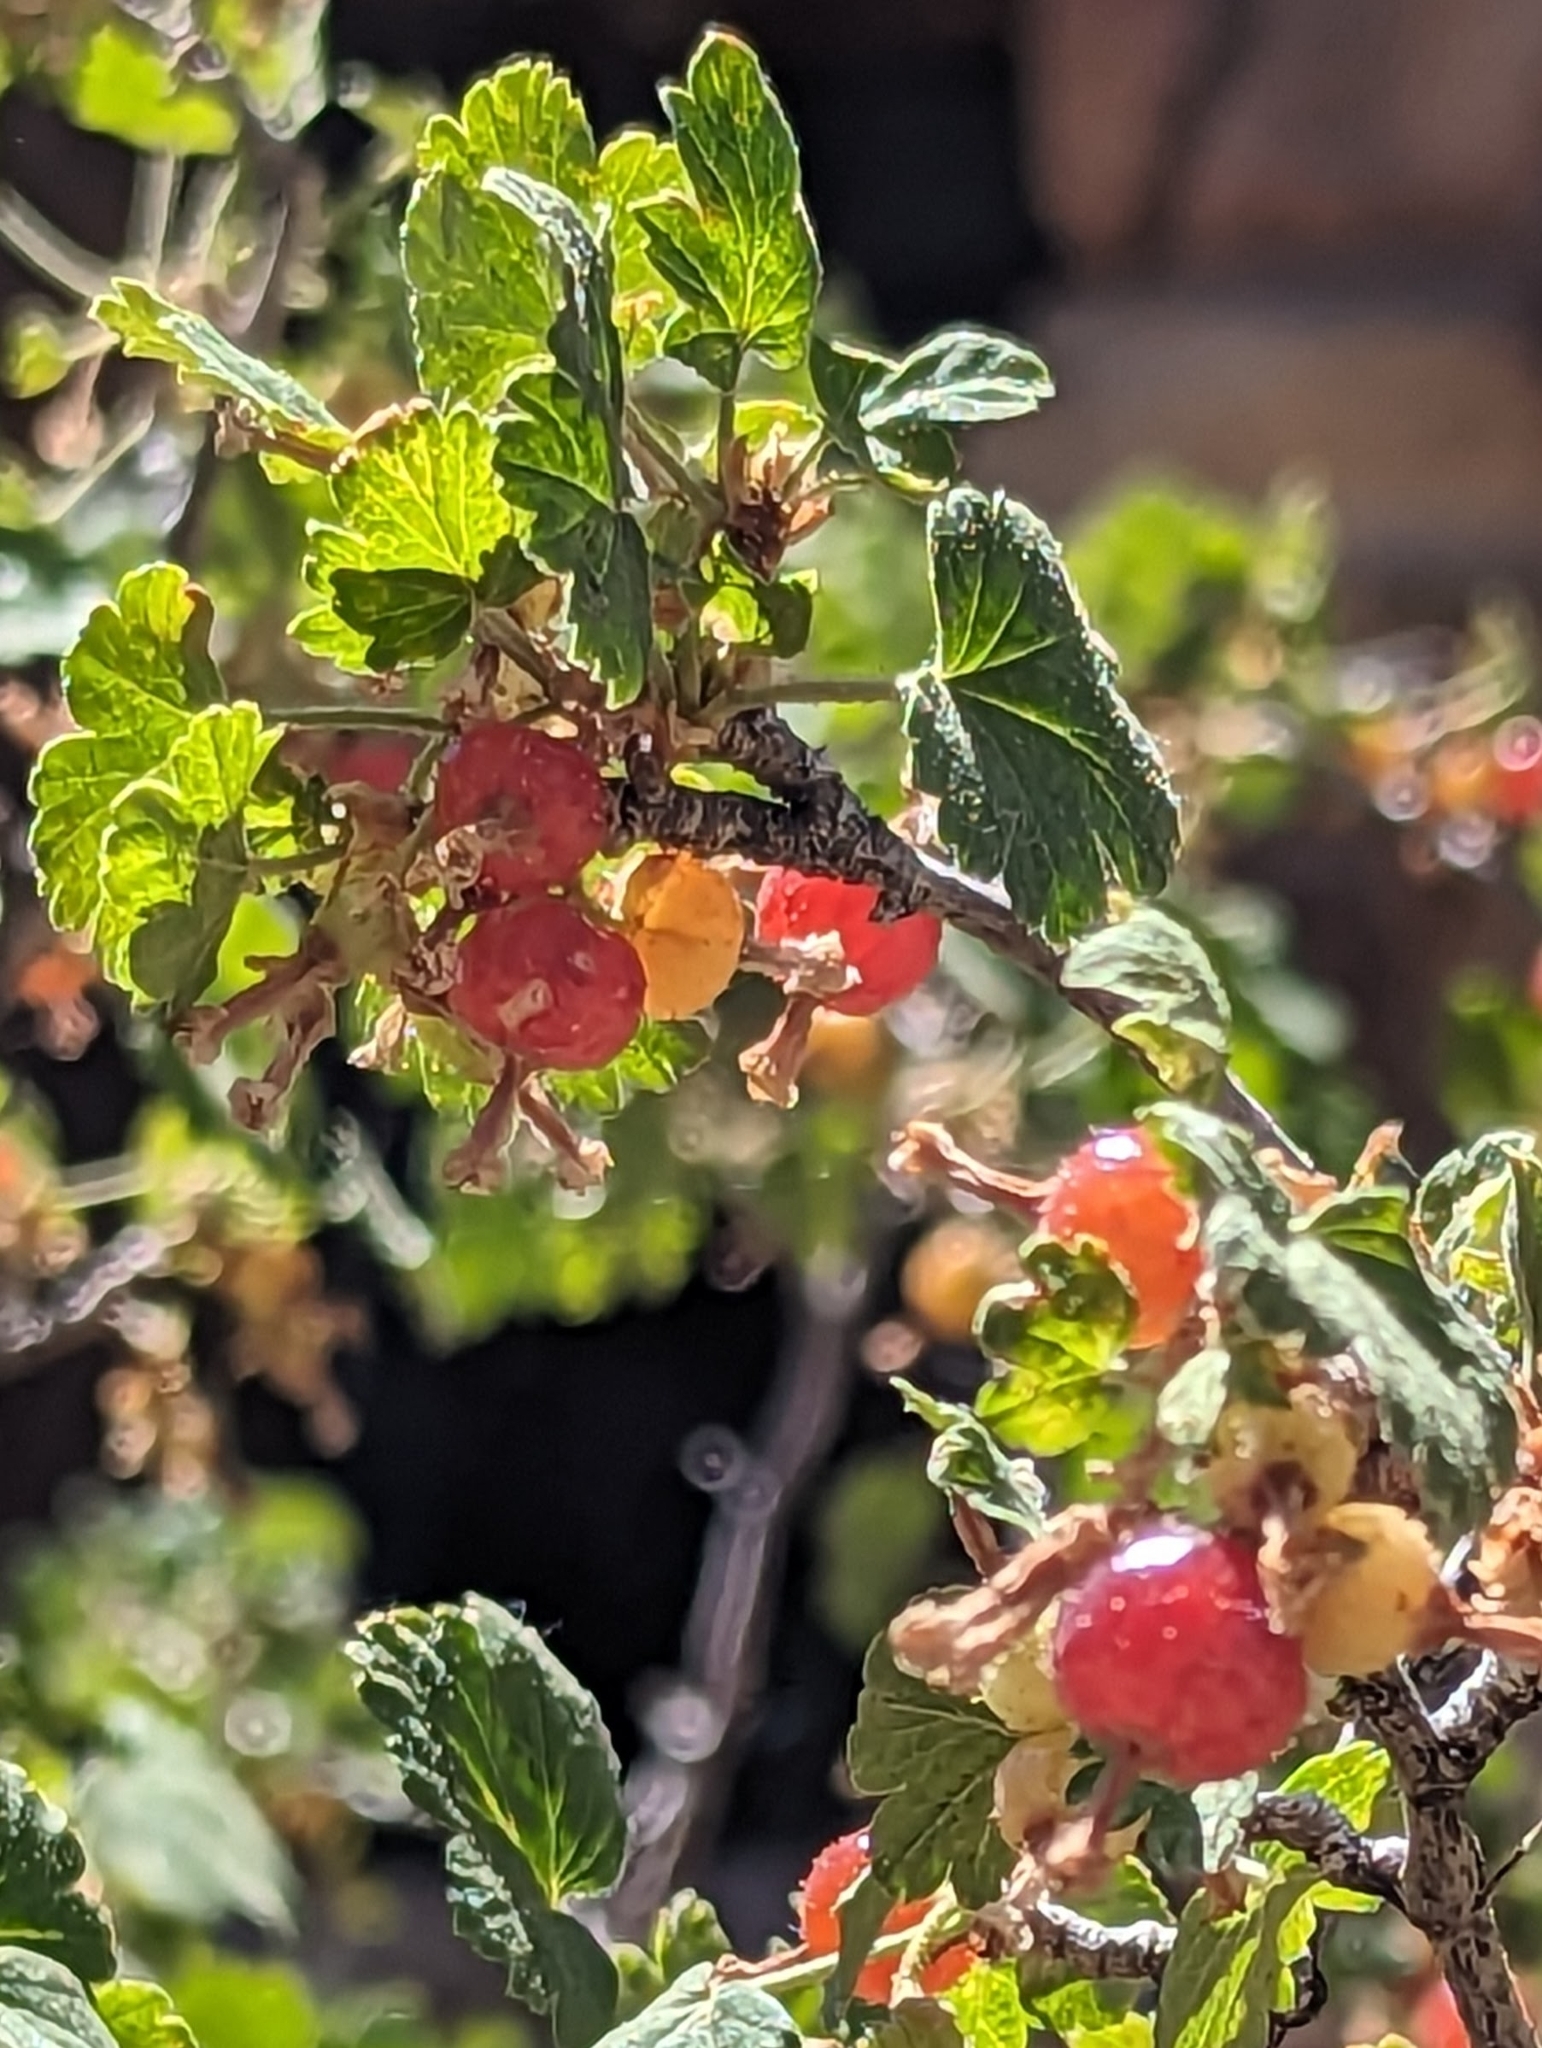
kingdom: Plantae
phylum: Tracheophyta
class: Magnoliopsida
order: Saxifragales
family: Grossulariaceae
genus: Ribes
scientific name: Ribes cereum
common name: Wax currant
